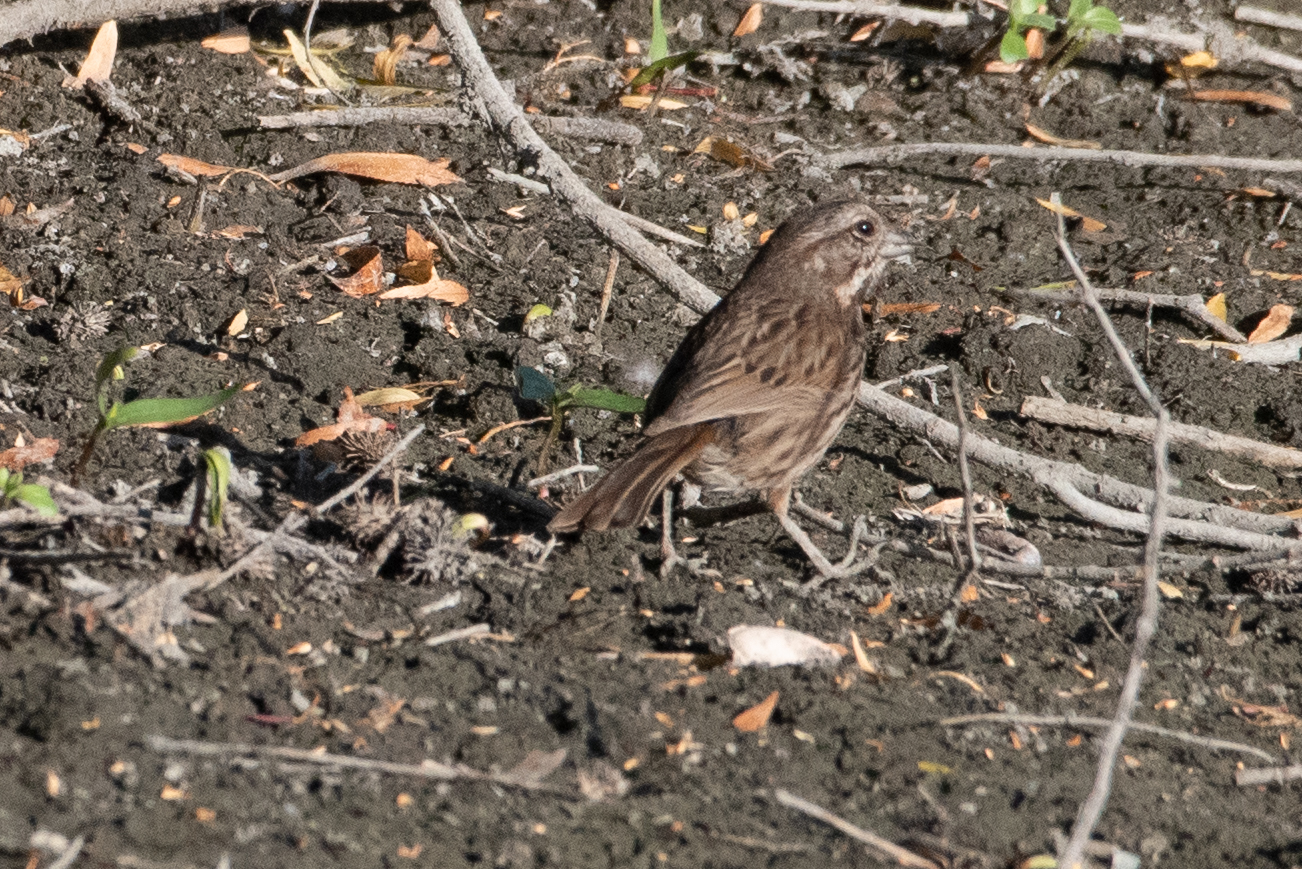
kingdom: Animalia
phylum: Chordata
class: Aves
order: Passeriformes
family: Passerellidae
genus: Melospiza
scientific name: Melospiza melodia
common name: Song sparrow
